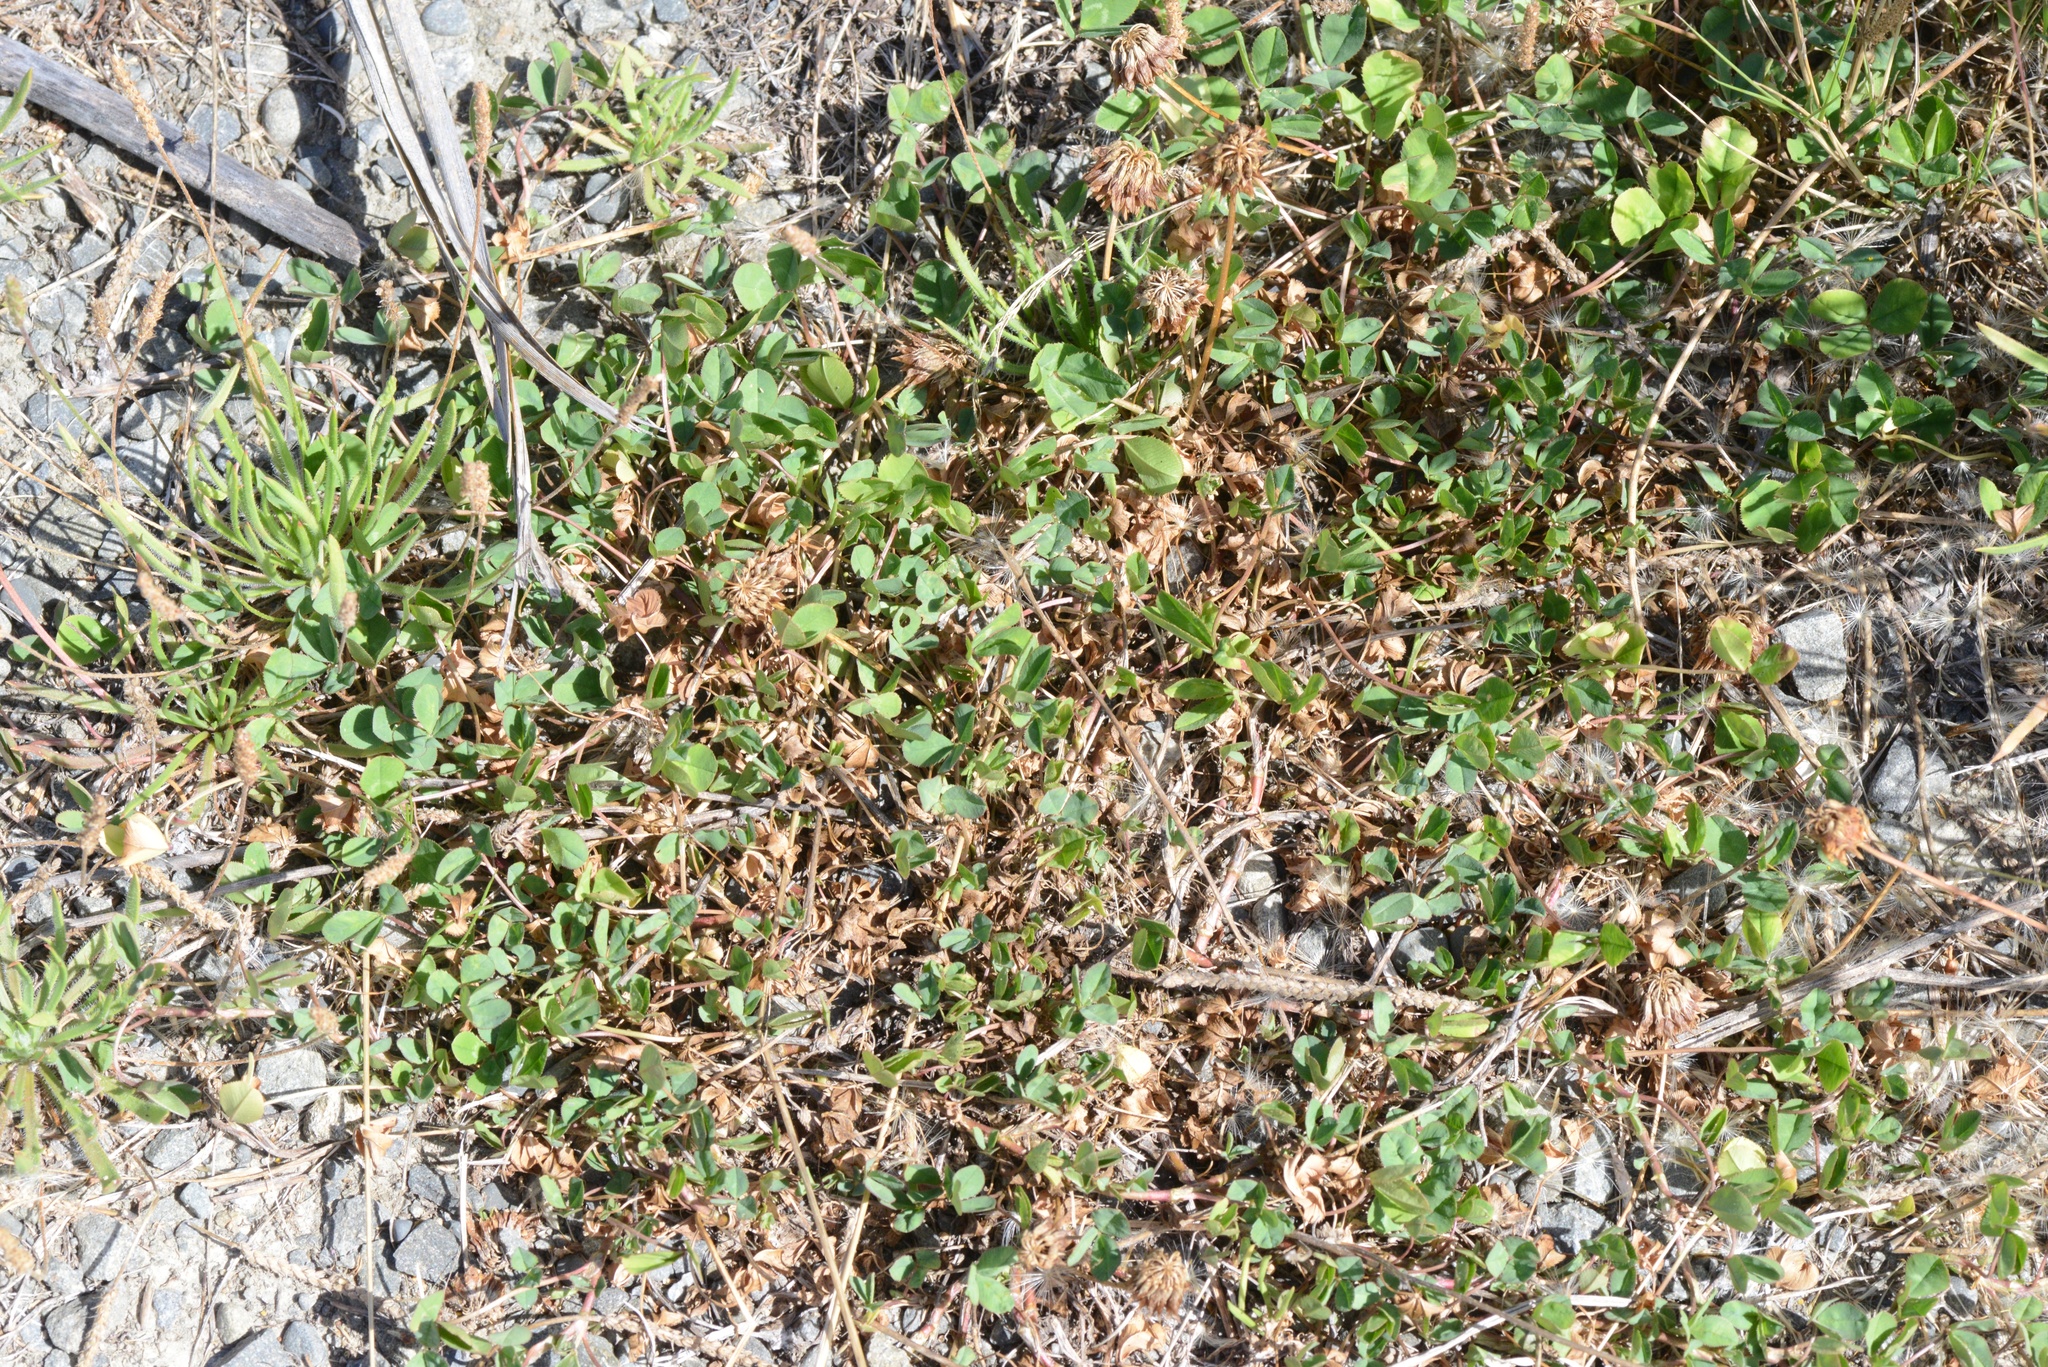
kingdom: Plantae
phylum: Tracheophyta
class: Magnoliopsida
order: Fabales
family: Fabaceae
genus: Trifolium
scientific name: Trifolium repens
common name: White clover
